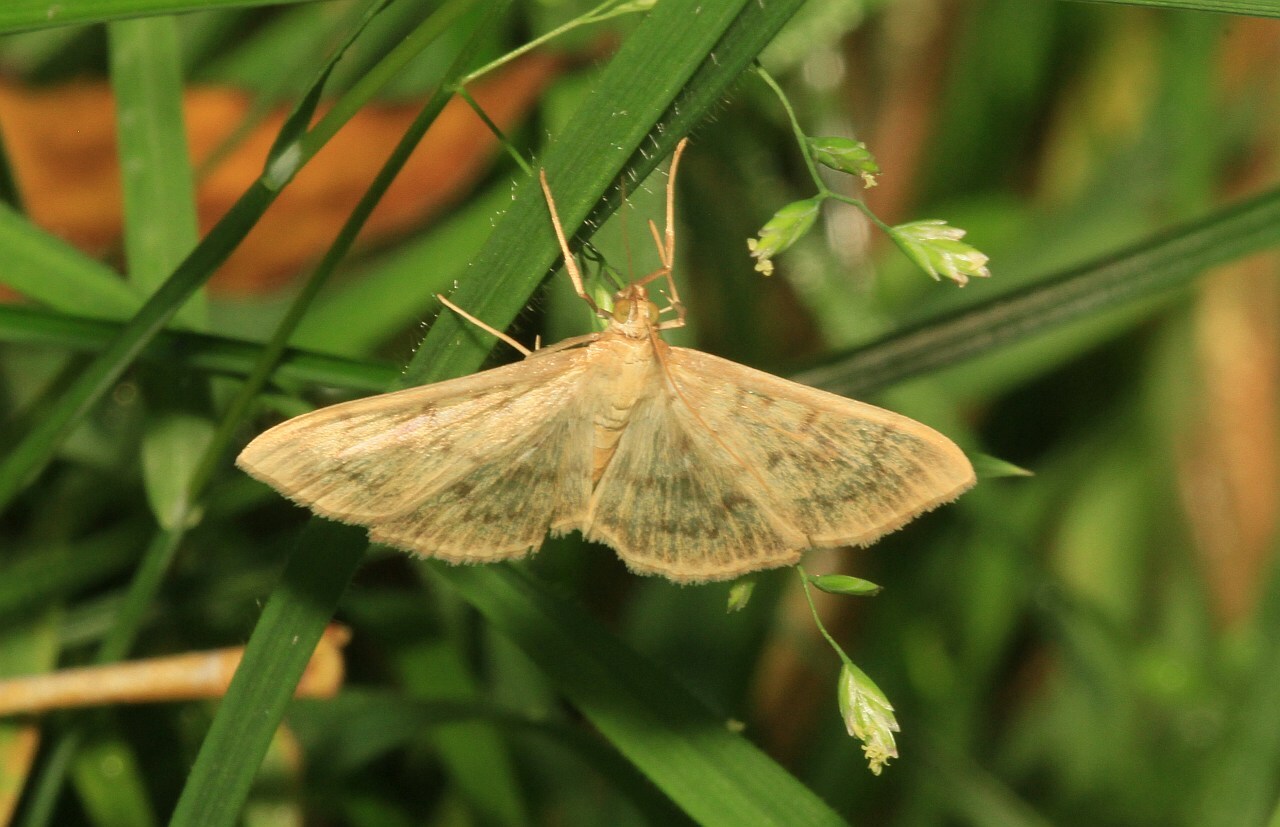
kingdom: Animalia
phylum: Arthropoda
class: Insecta
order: Lepidoptera
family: Crambidae
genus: Patania
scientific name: Patania ruralis
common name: Mother of pearl
